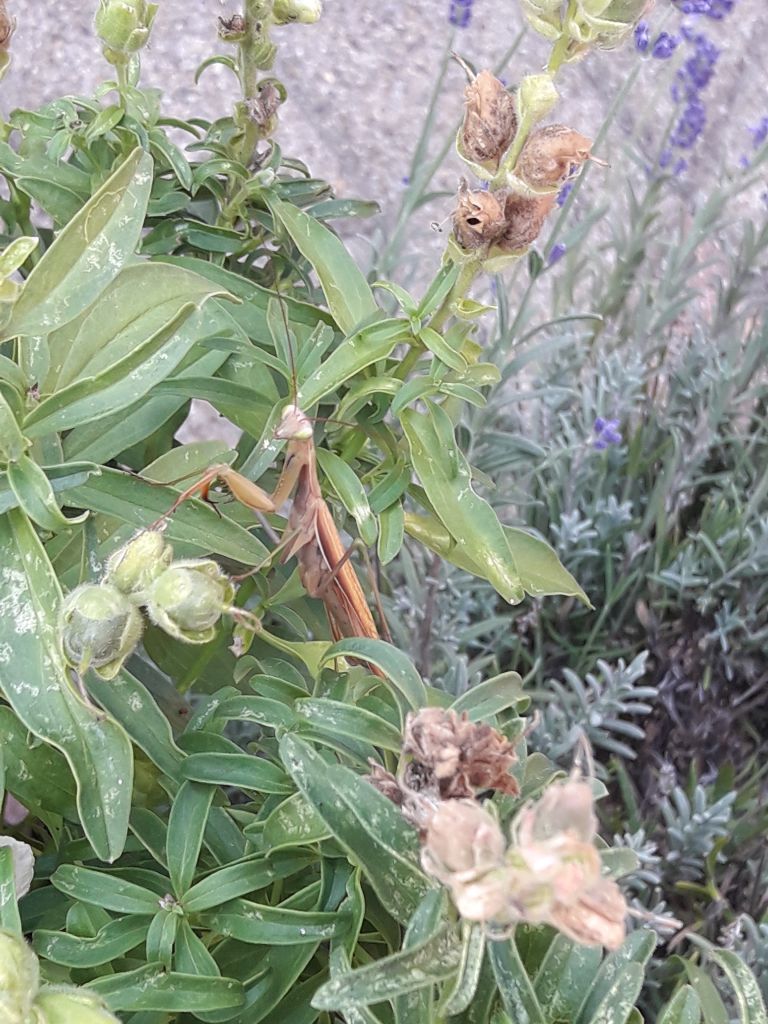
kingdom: Animalia
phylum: Arthropoda
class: Insecta
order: Mantodea
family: Mantidae
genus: Mantis
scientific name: Mantis religiosa
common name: Praying mantis
